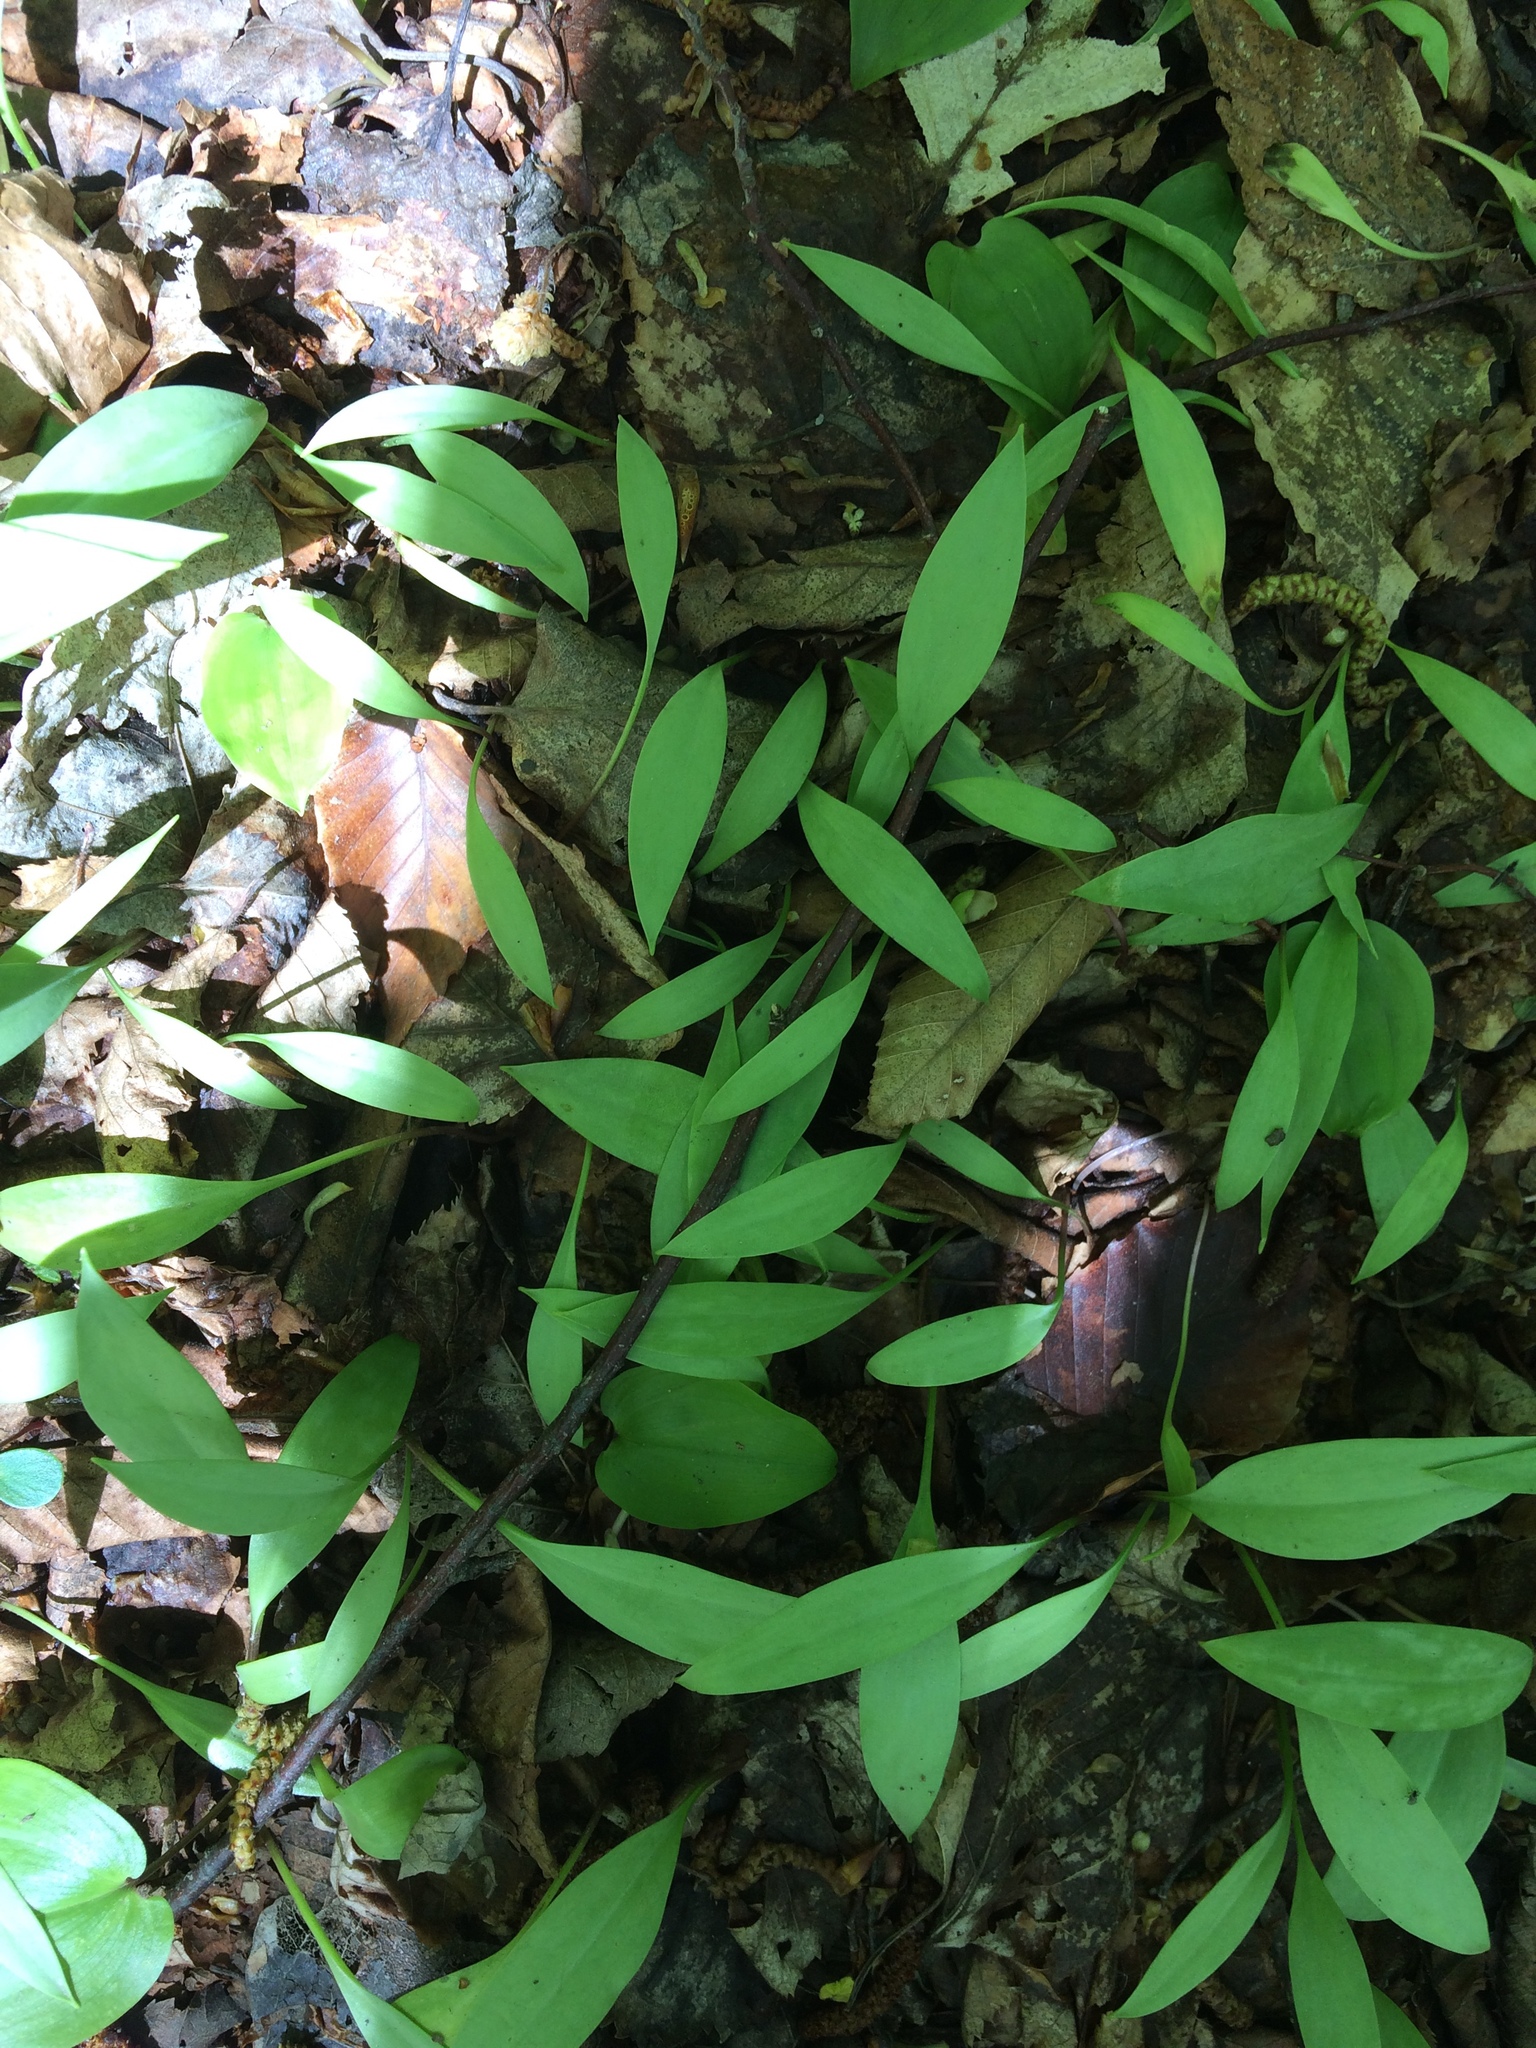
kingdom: Plantae
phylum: Tracheophyta
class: Liliopsida
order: Liliales
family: Liliaceae
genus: Erythronium
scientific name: Erythronium americanum
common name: Yellow adder's-tongue
